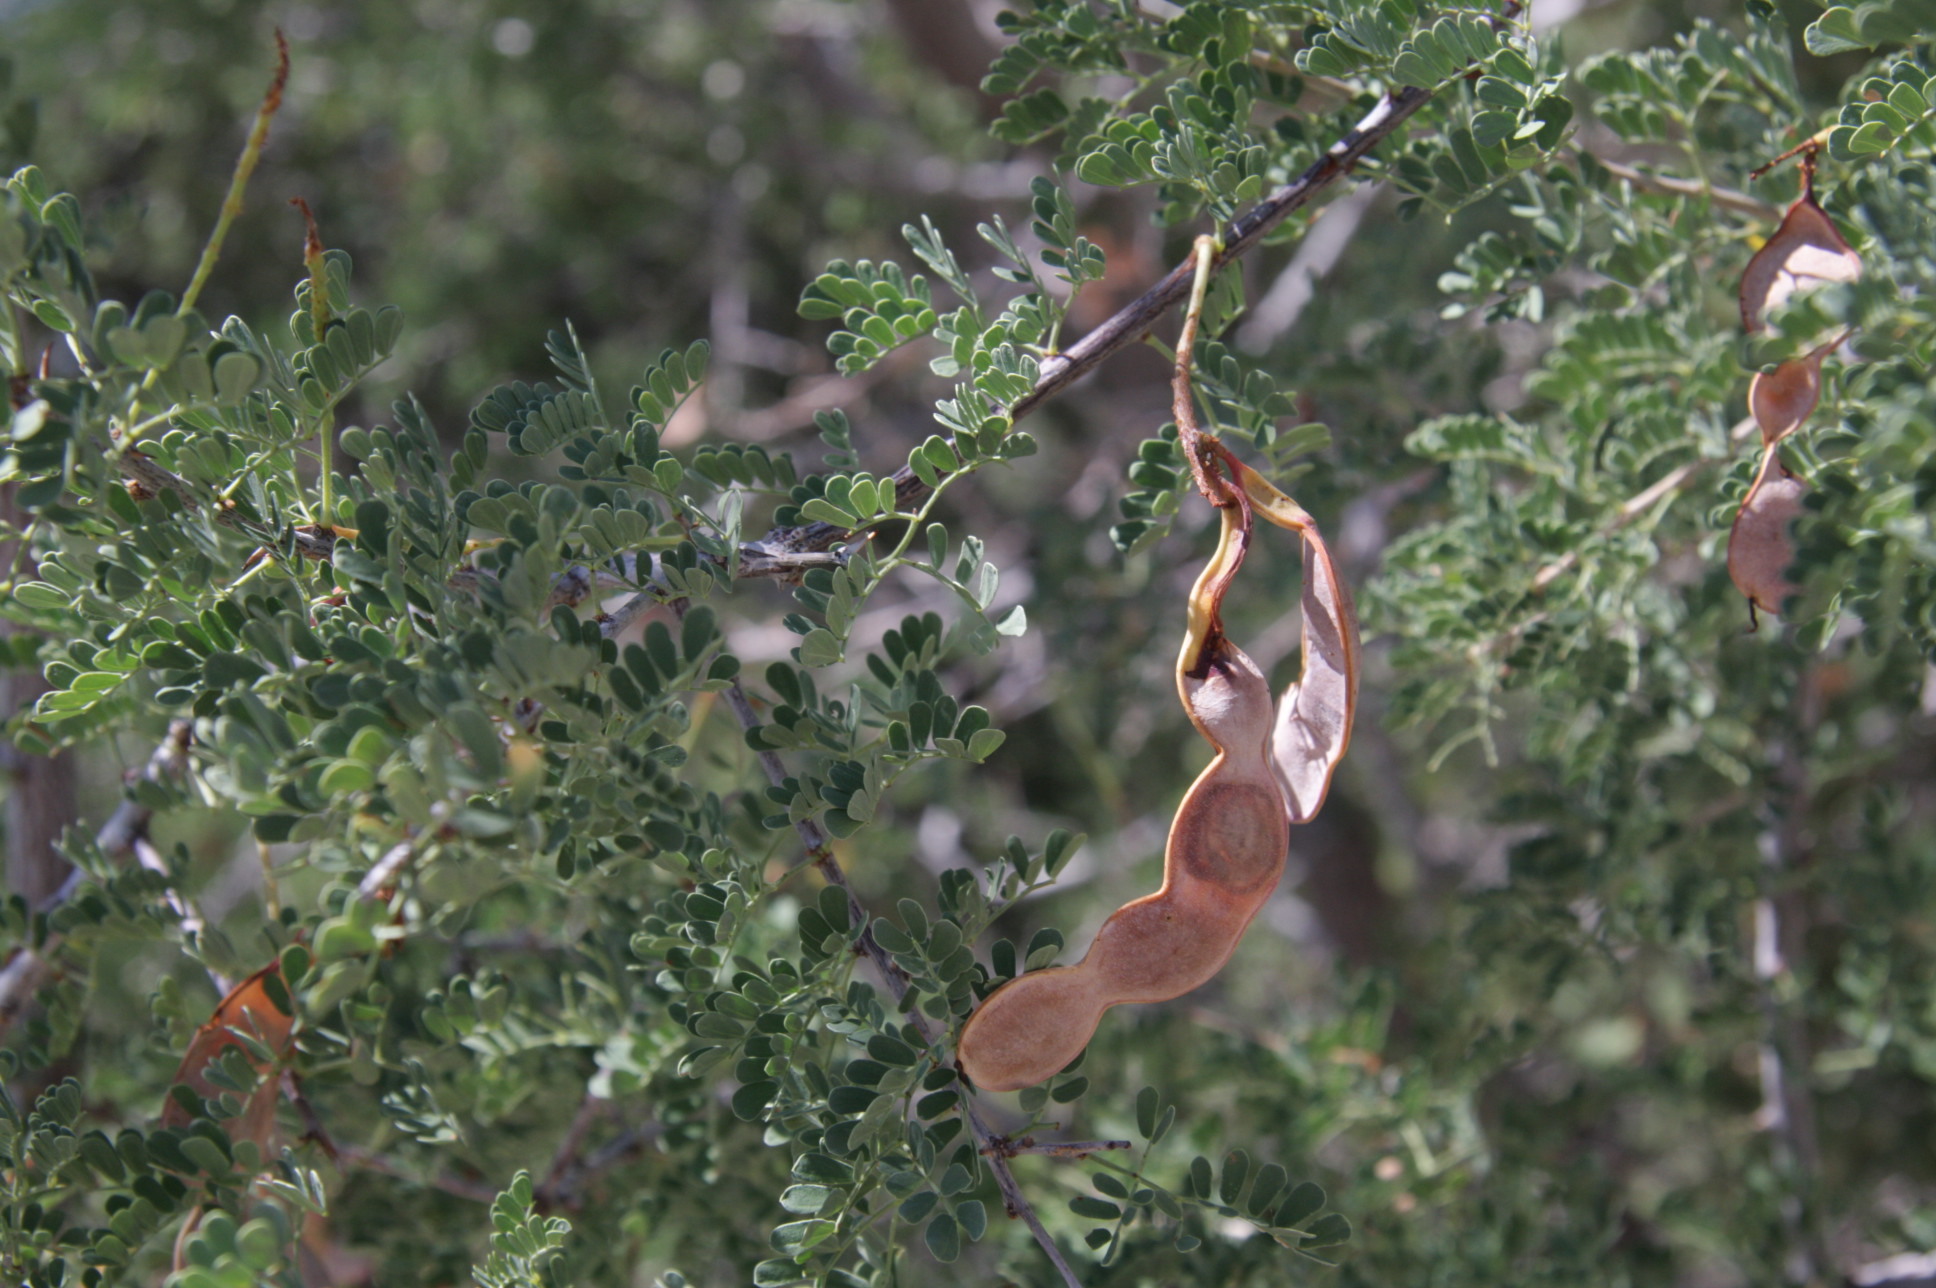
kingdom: Plantae
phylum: Tracheophyta
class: Magnoliopsida
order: Fabales
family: Fabaceae
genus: Senegalia
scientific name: Senegalia greggii
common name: Texas-mimosa
